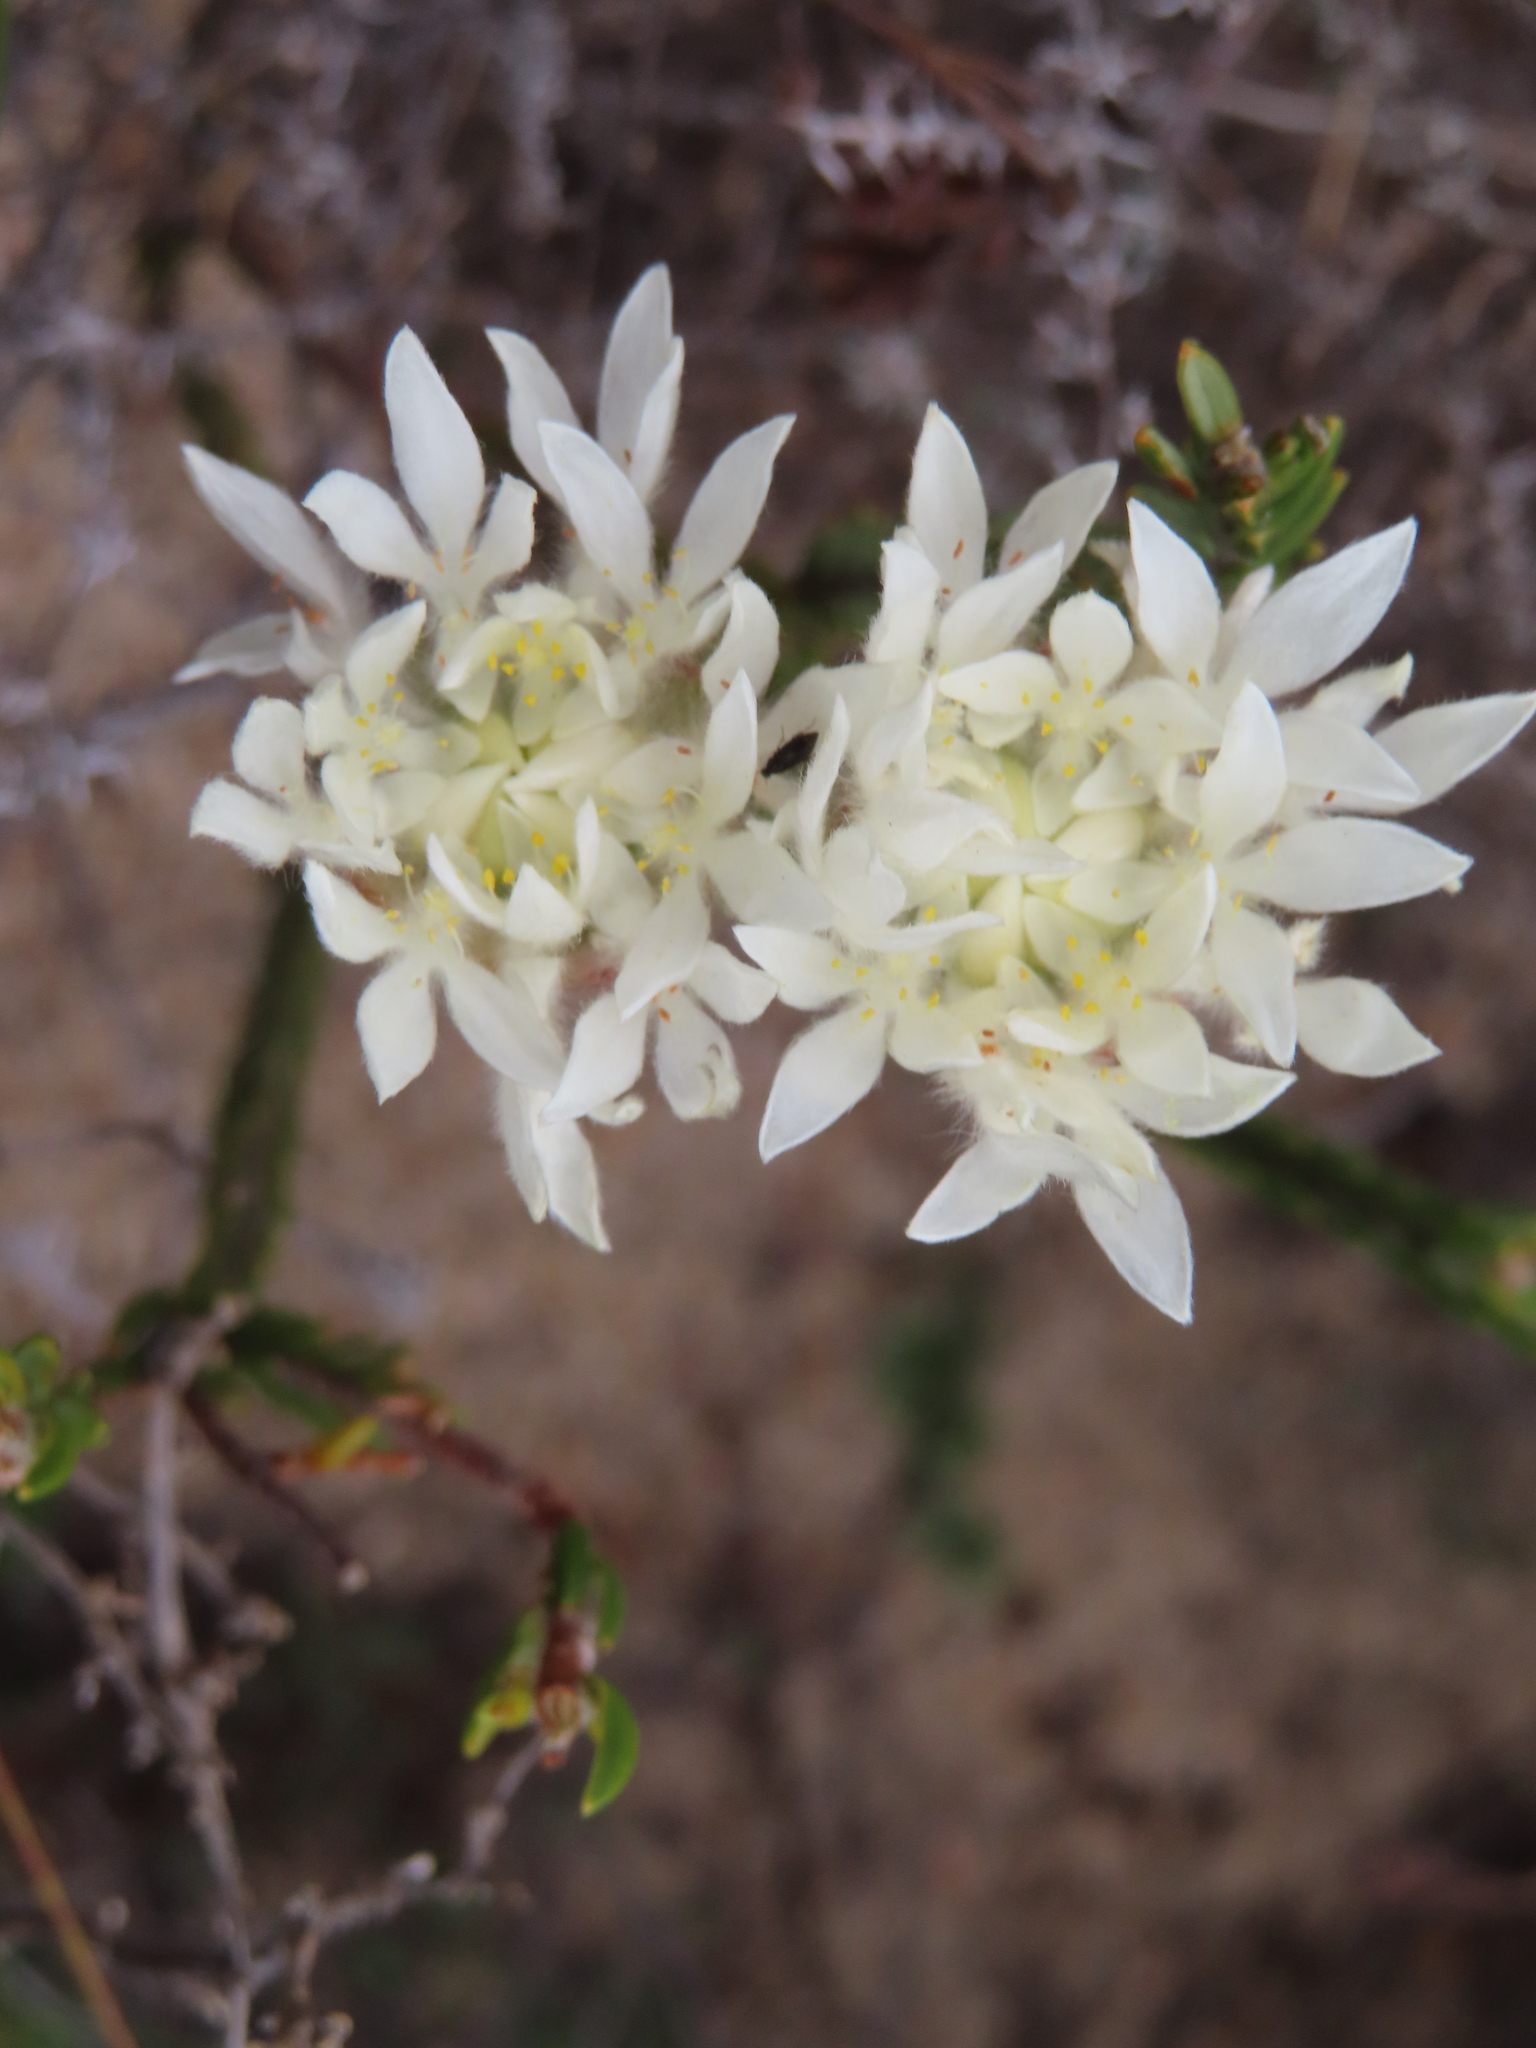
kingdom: Plantae
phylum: Tracheophyta
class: Magnoliopsida
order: Malvales
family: Thymelaeaceae
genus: Lachnaea
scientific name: Lachnaea eriocephala
